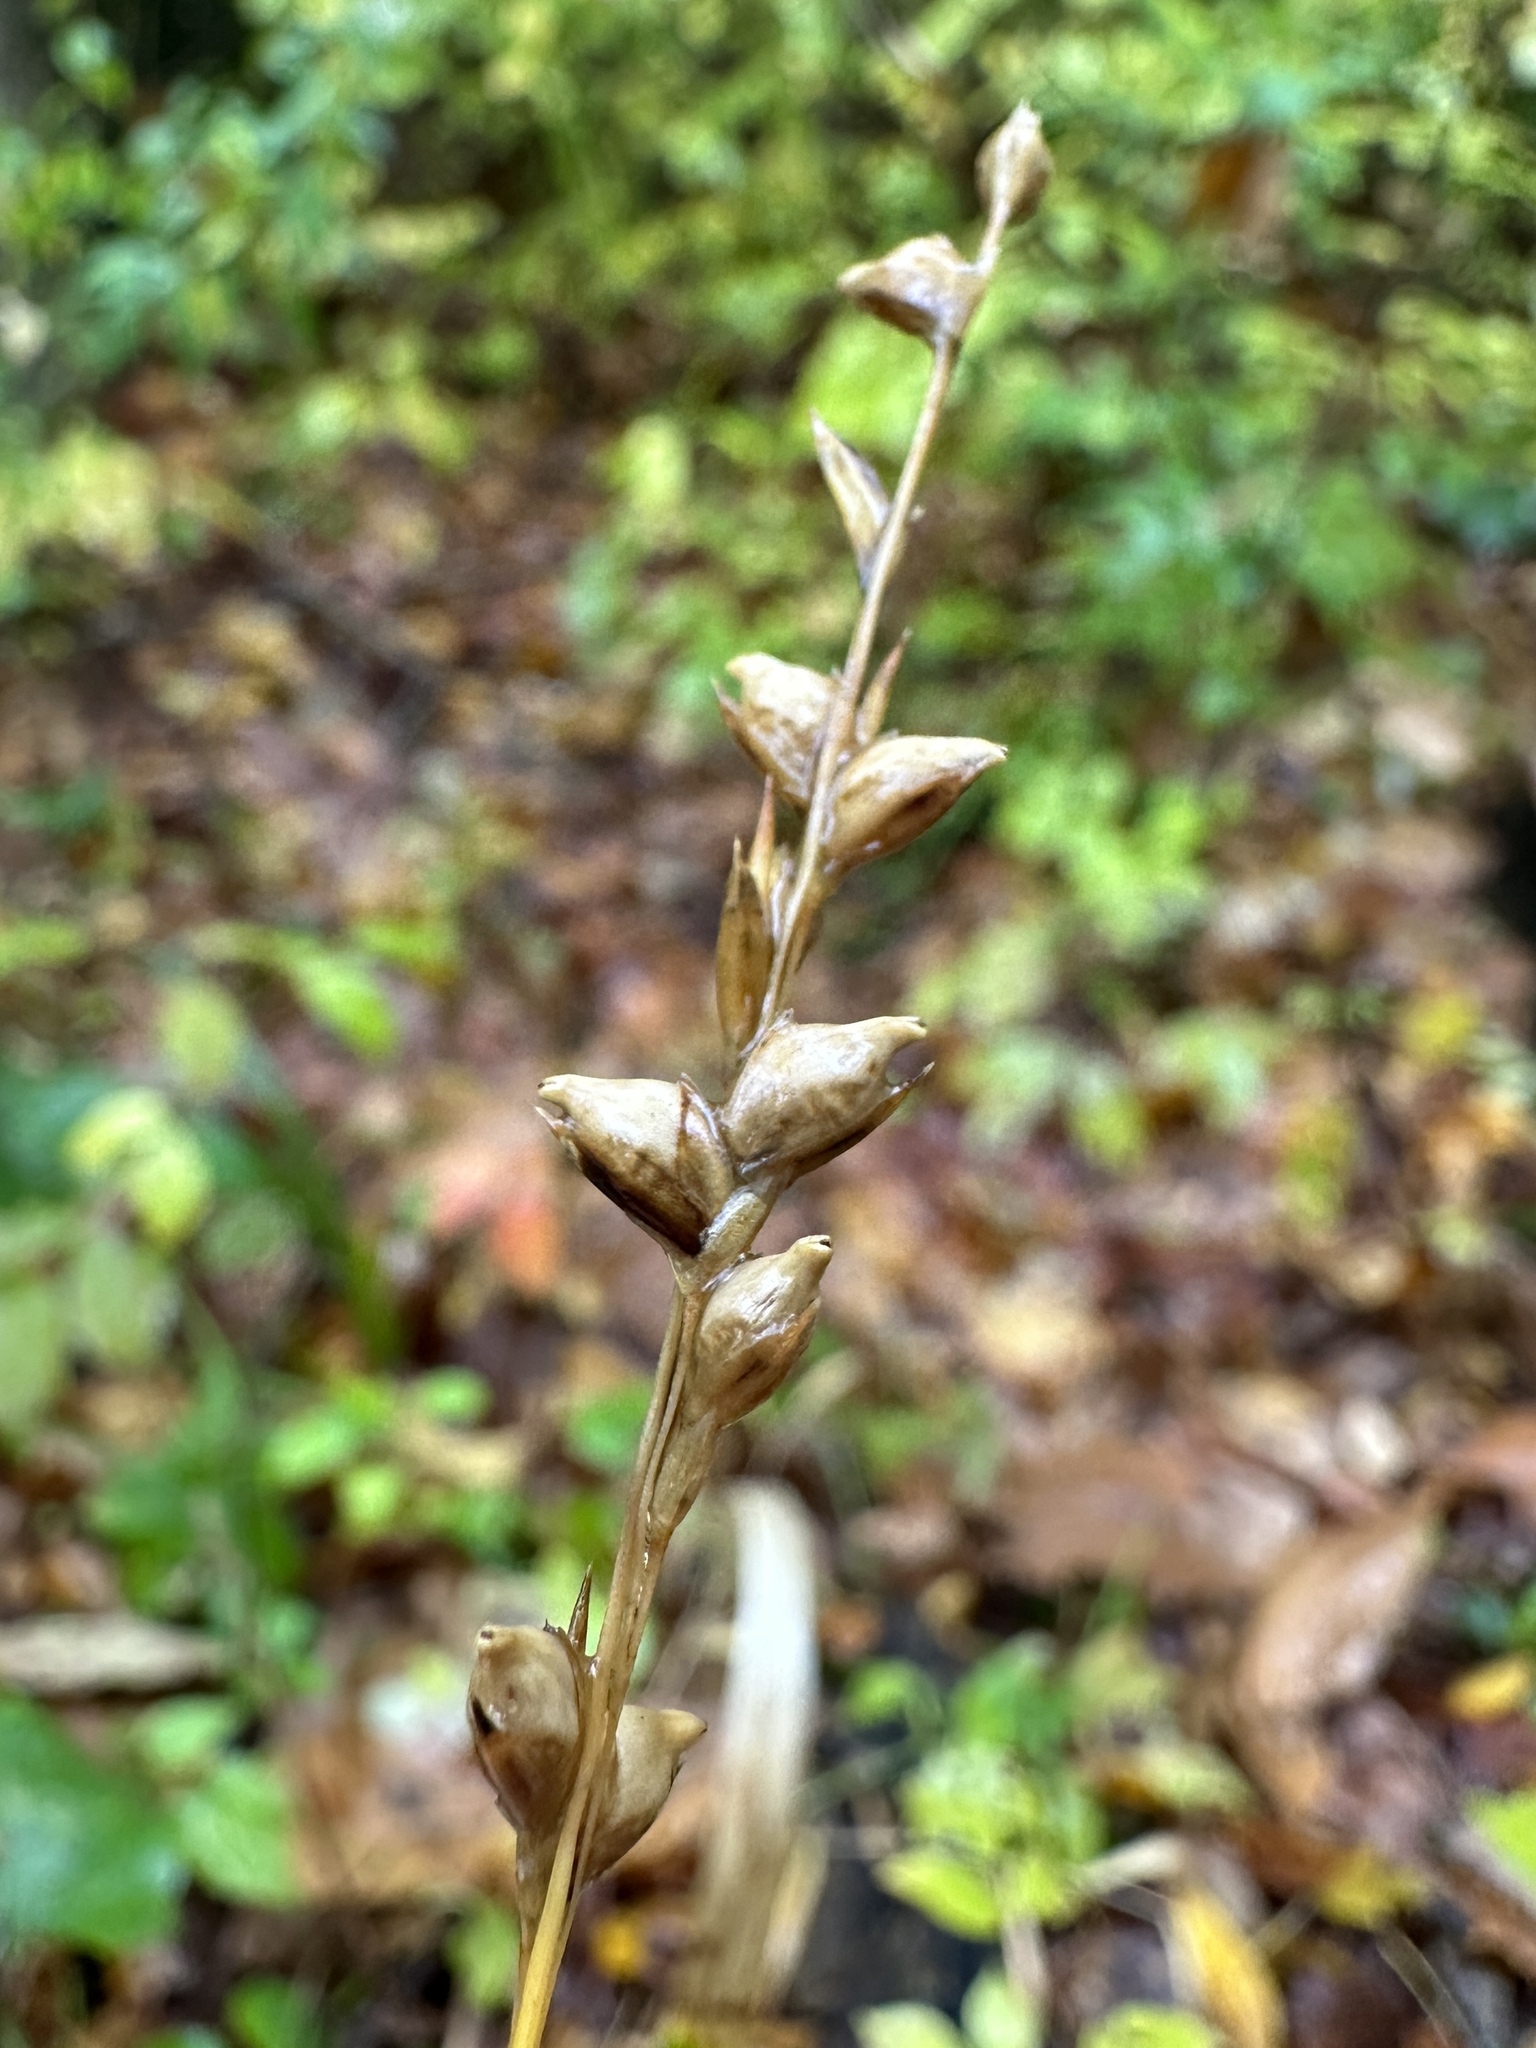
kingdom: Plantae
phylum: Tracheophyta
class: Liliopsida
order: Poales
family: Poaceae
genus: Diarrhena
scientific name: Diarrhena obovata
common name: Beakgrass
